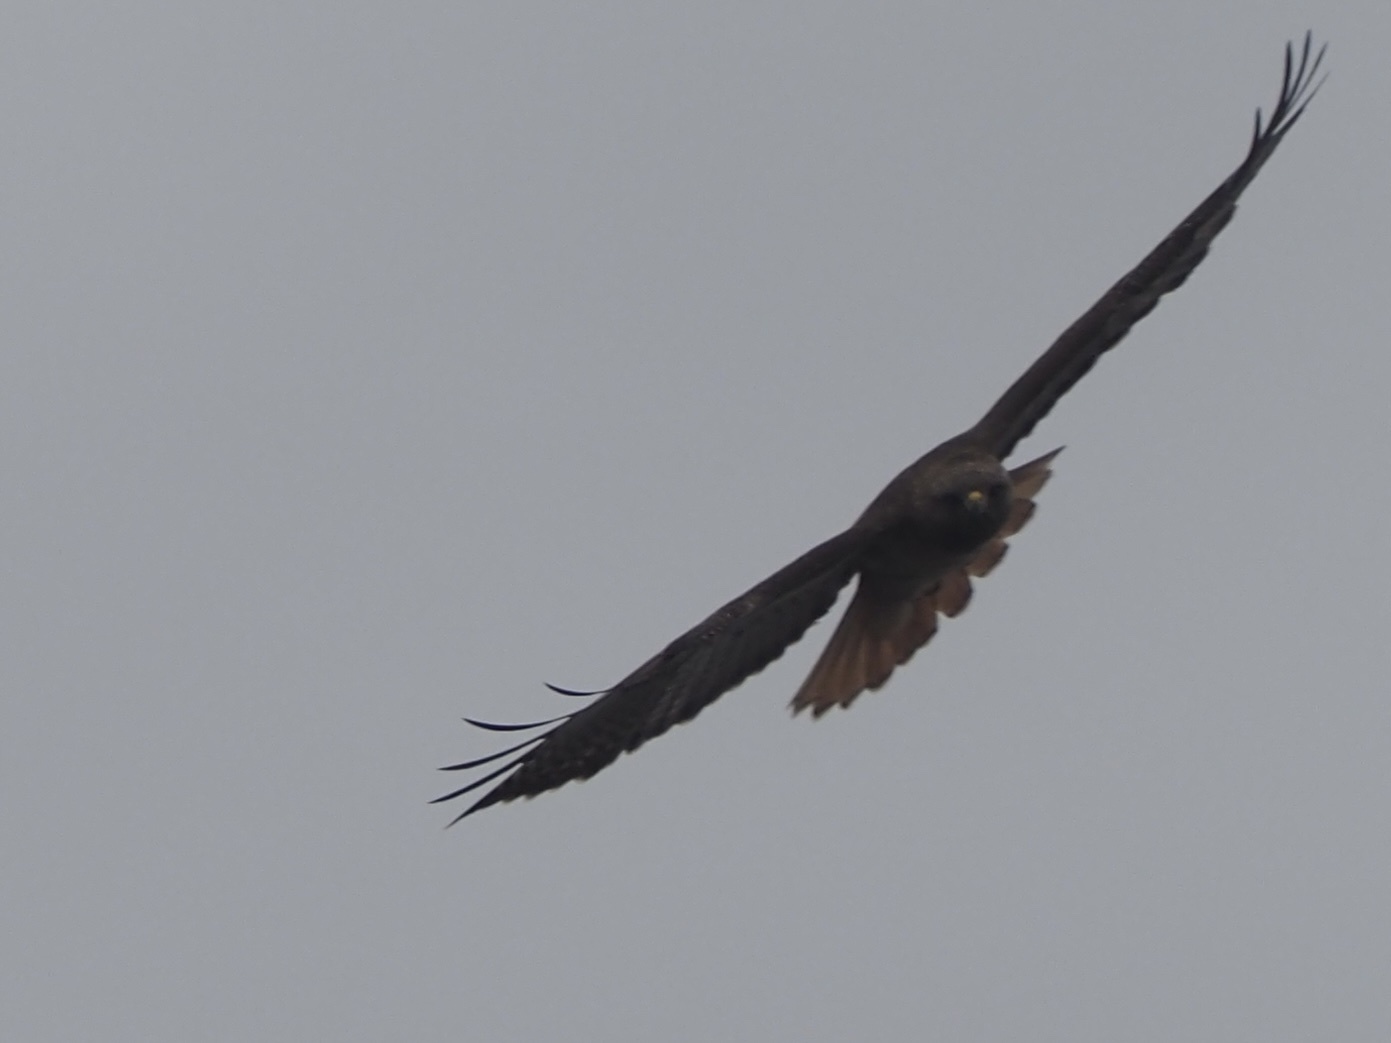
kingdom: Animalia
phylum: Chordata
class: Aves
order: Accipitriformes
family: Accipitridae
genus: Buteo
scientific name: Buteo jamaicensis
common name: Red-tailed hawk
